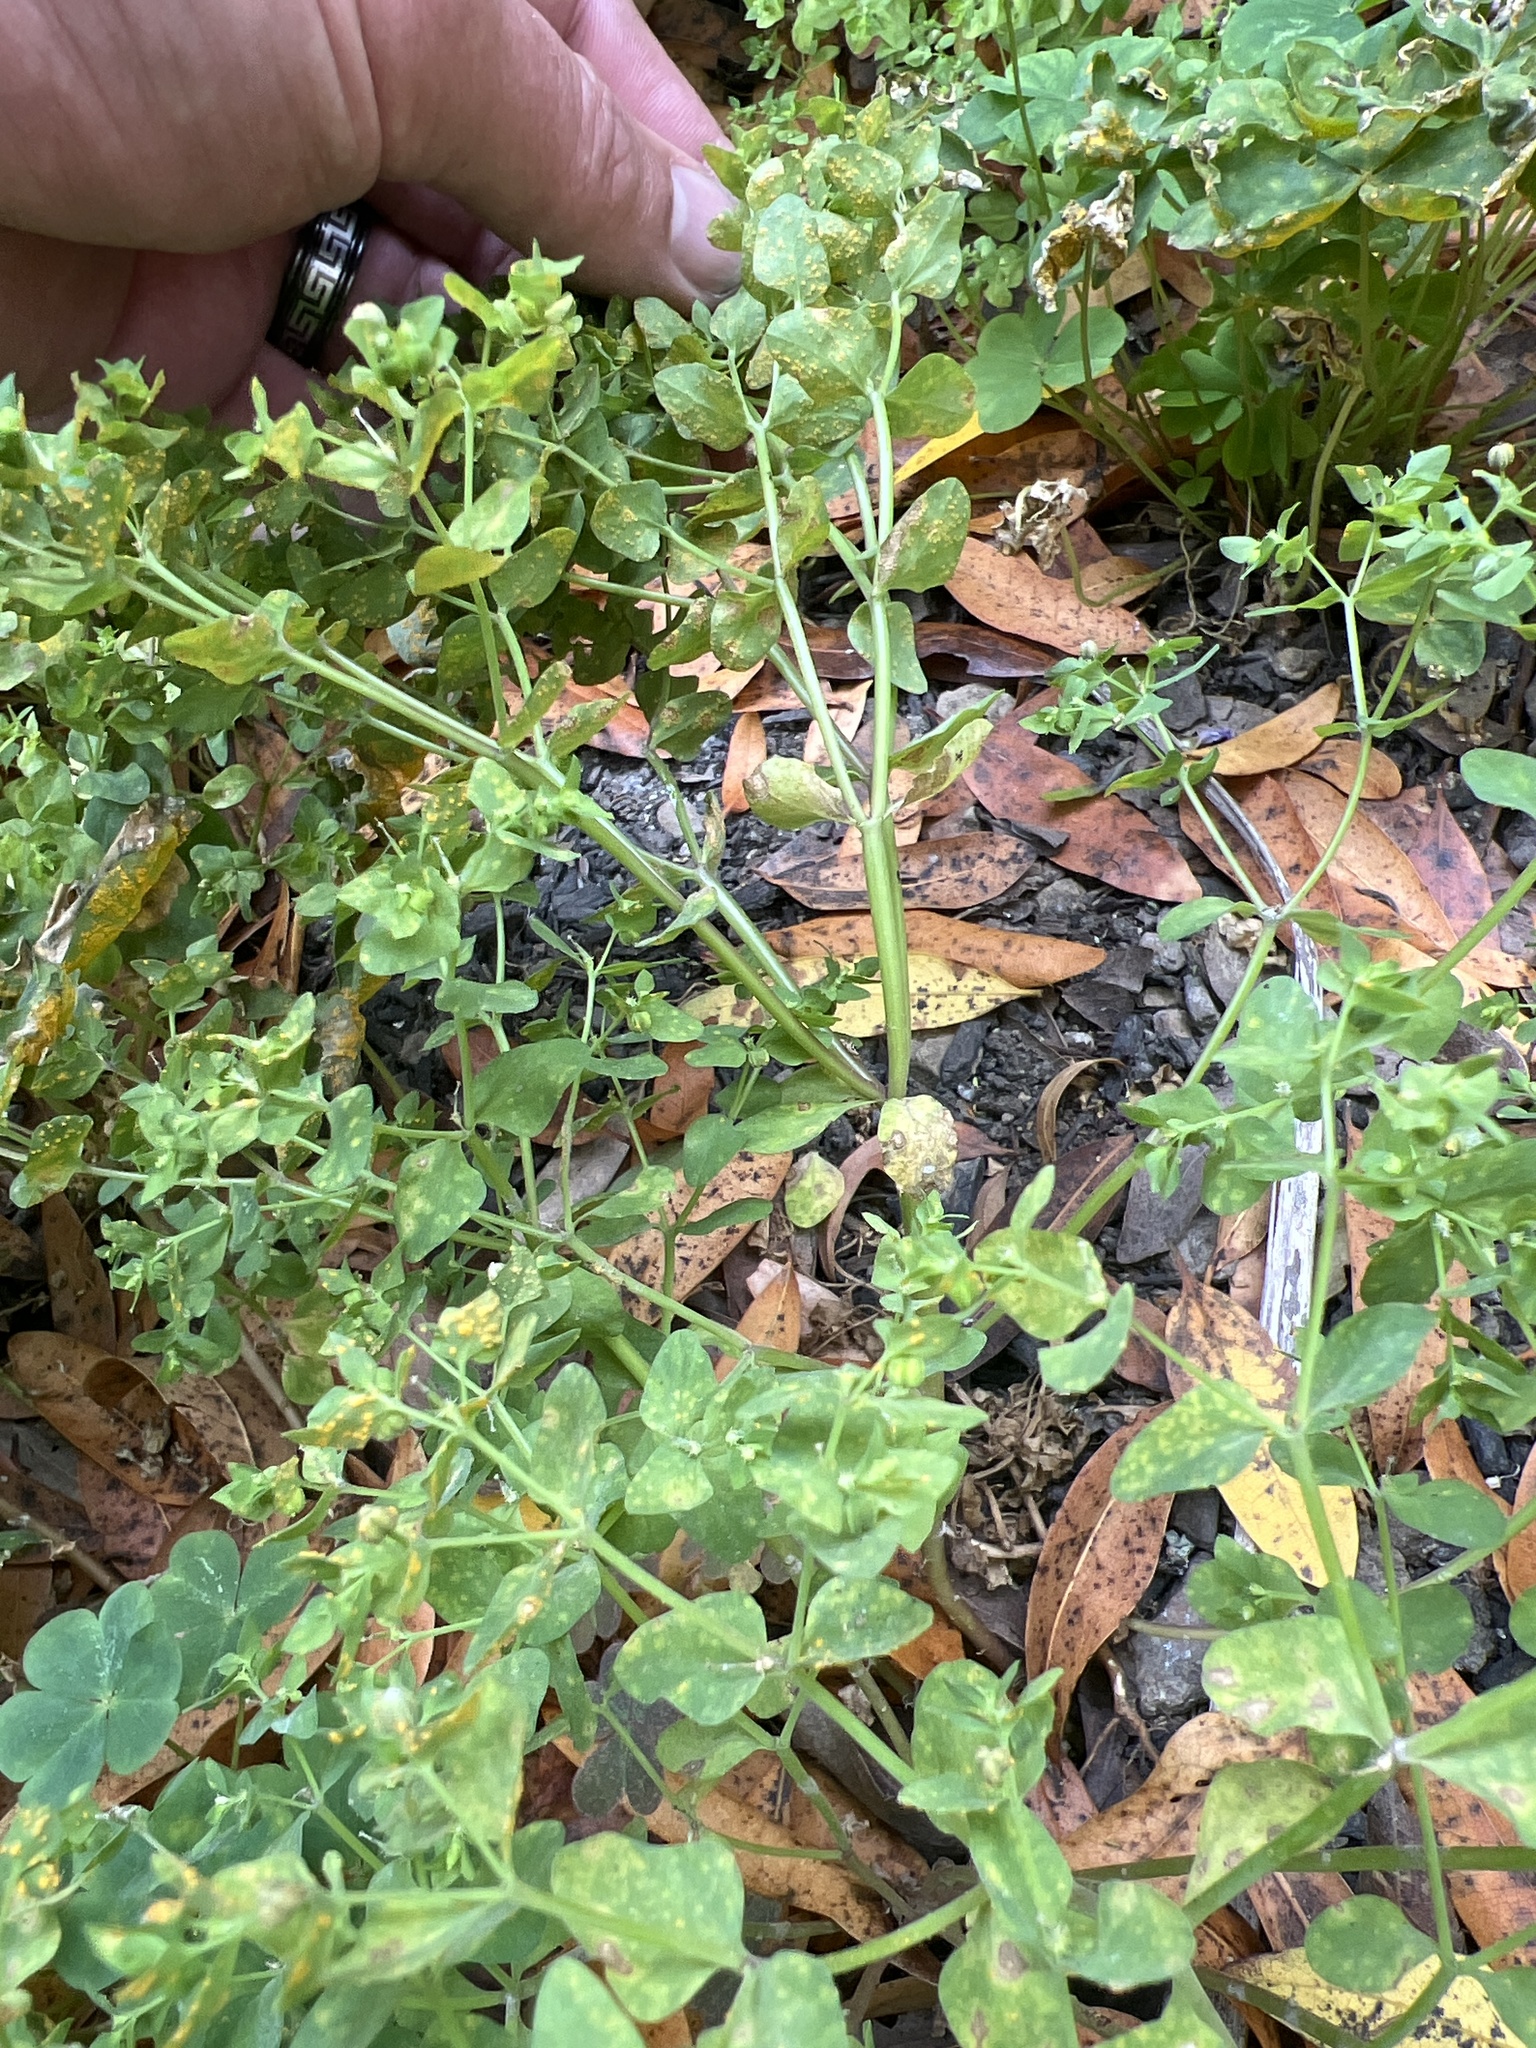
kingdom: Plantae
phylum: Tracheophyta
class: Magnoliopsida
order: Malpighiales
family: Euphorbiaceae
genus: Euphorbia
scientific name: Euphorbia peplus
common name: Petty spurge
